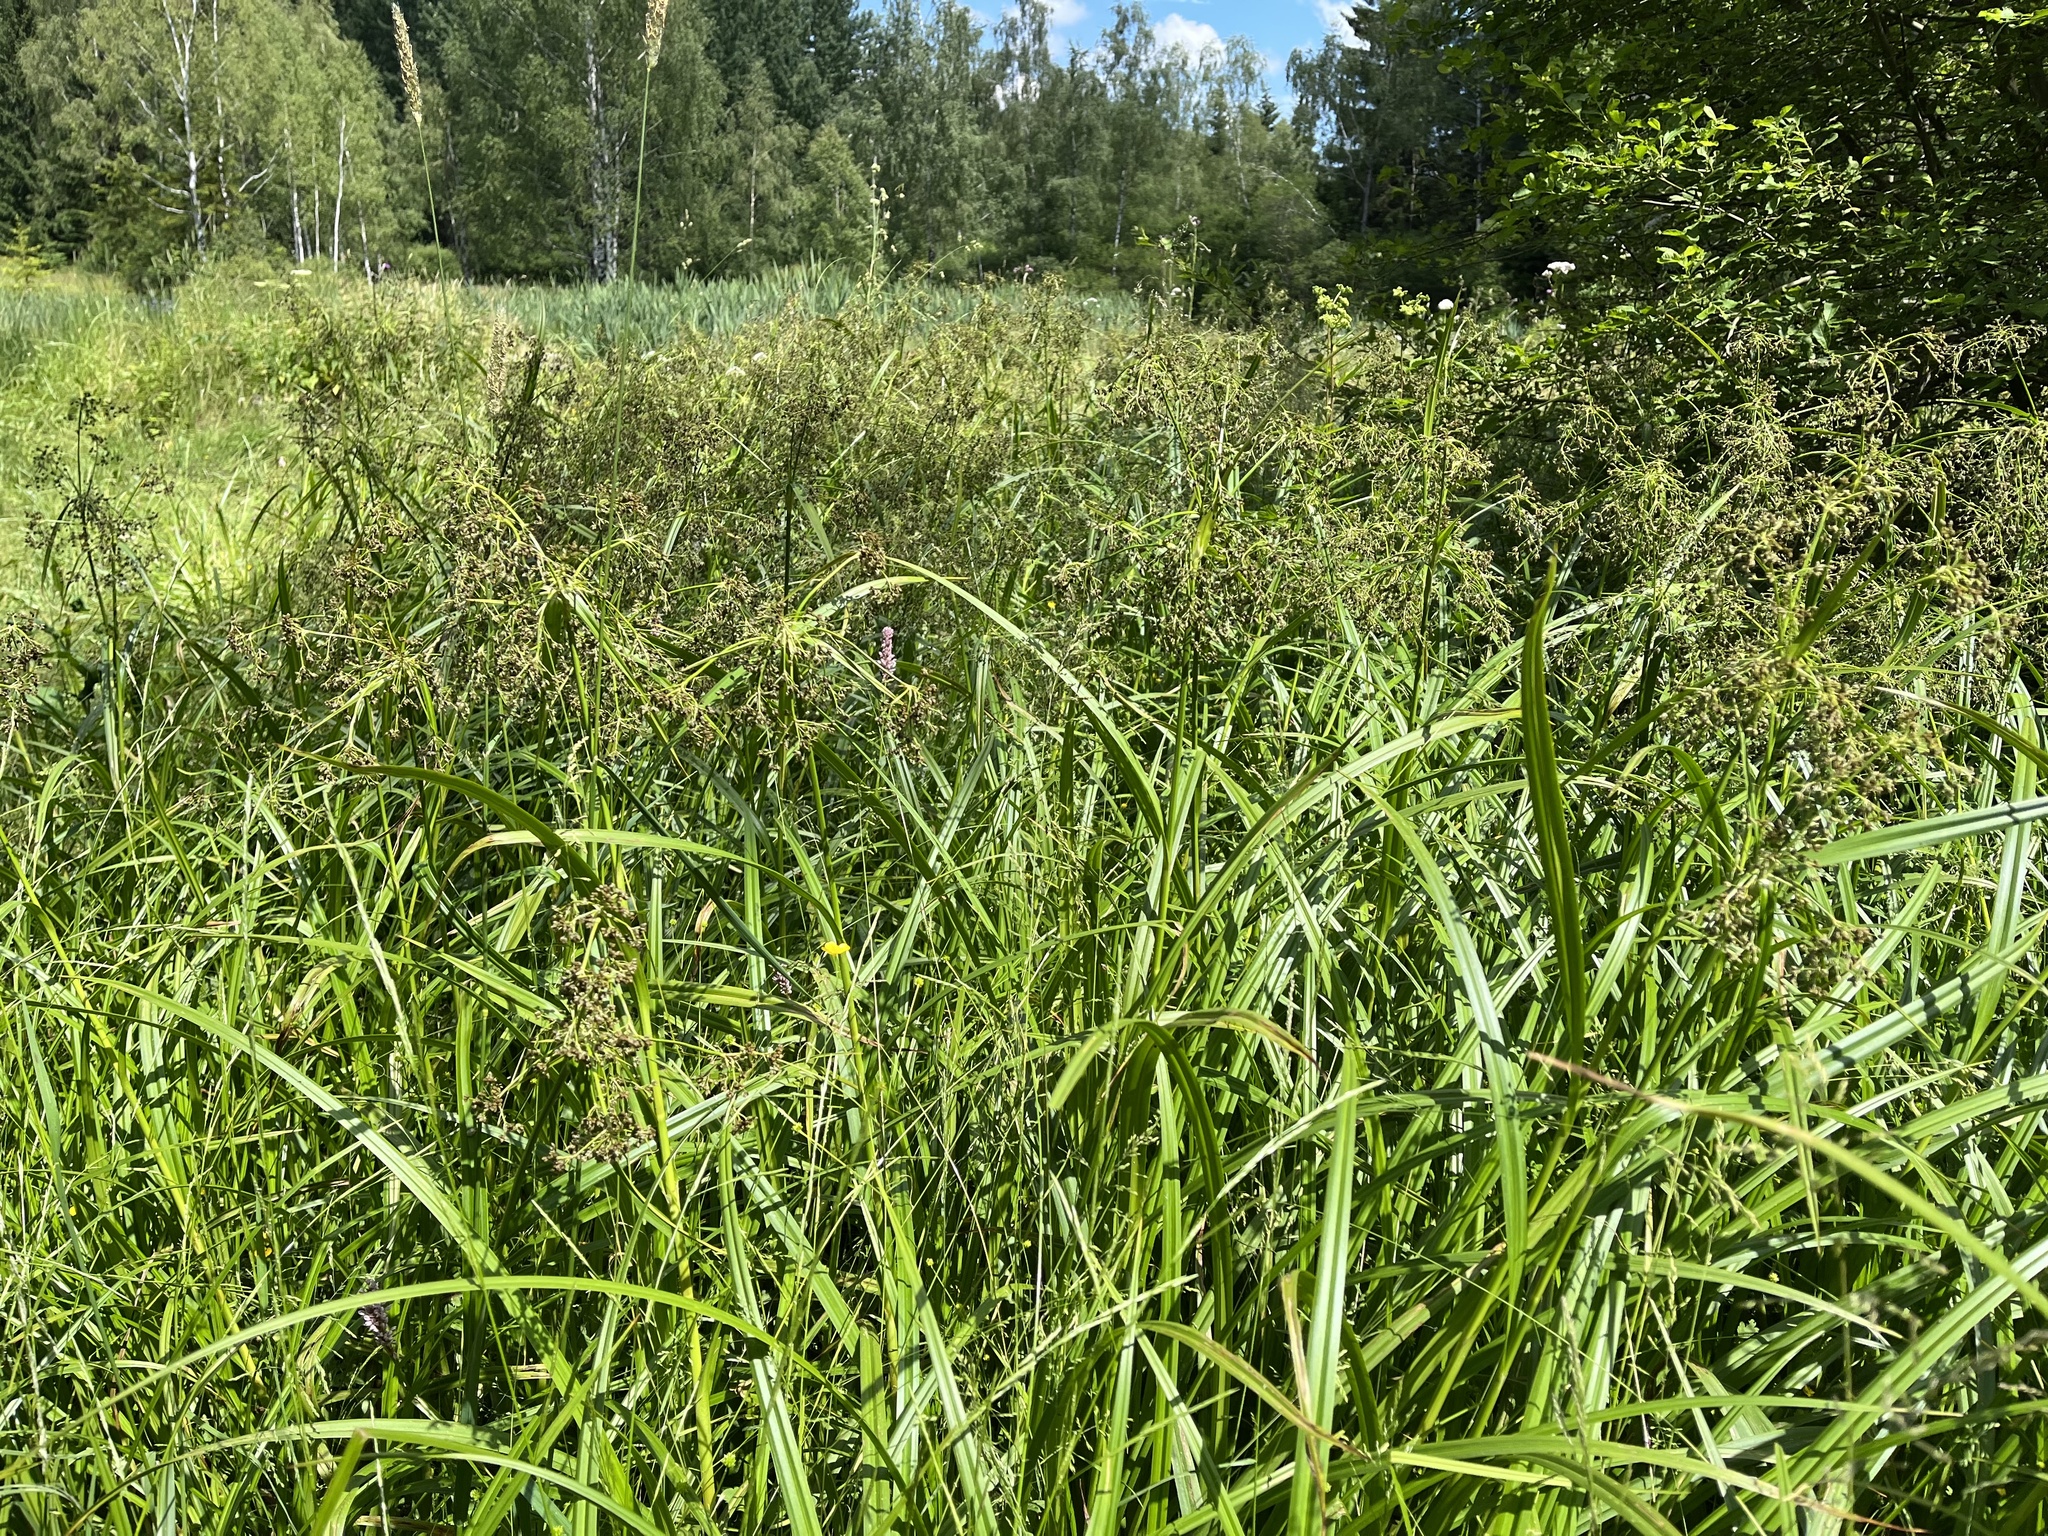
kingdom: Plantae
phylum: Tracheophyta
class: Liliopsida
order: Poales
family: Cyperaceae
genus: Scirpus
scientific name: Scirpus sylvaticus
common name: Wood club-rush
